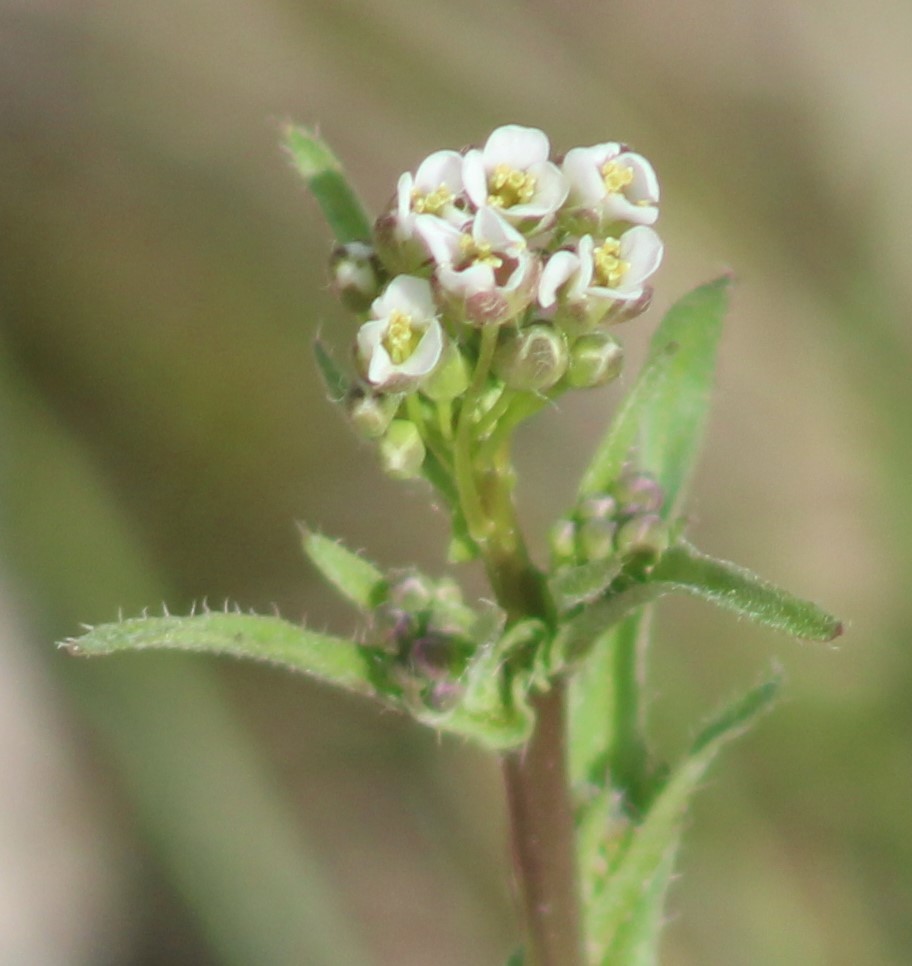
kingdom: Plantae
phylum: Tracheophyta
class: Magnoliopsida
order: Brassicales
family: Brassicaceae
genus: Capsella
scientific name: Capsella bursa-pastoris
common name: Shepherd's purse
